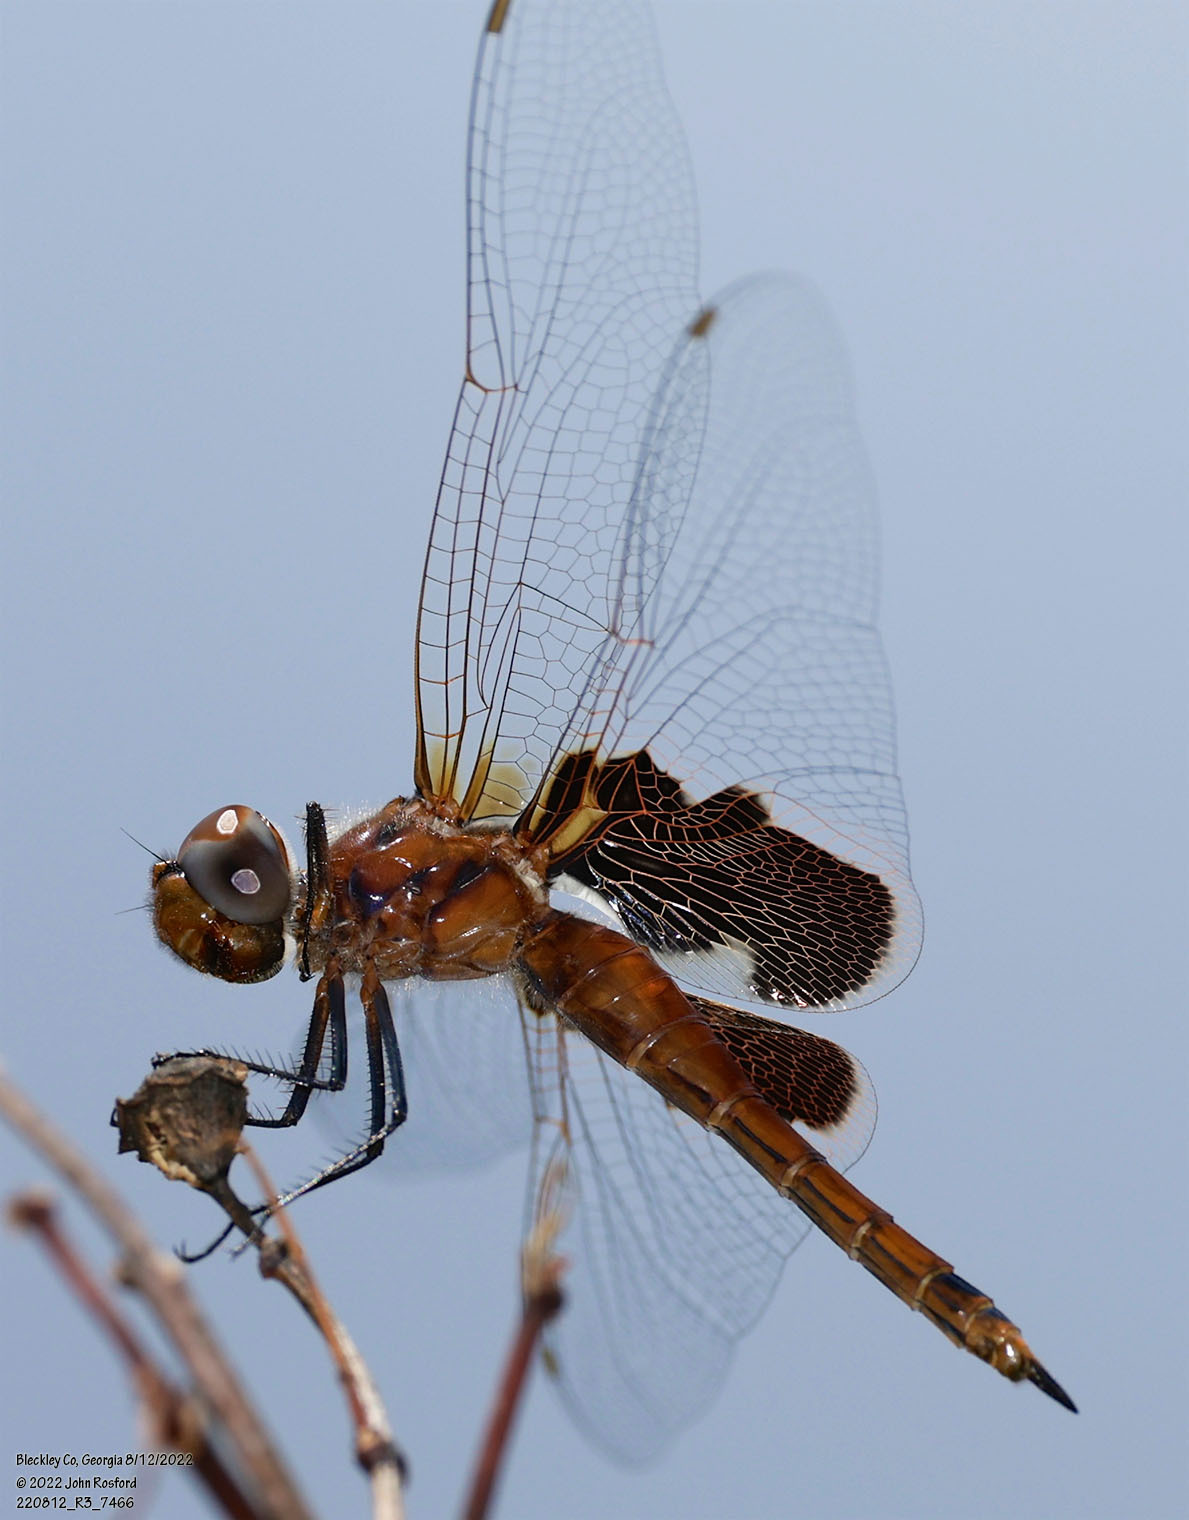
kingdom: Animalia
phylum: Arthropoda
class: Insecta
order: Odonata
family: Libellulidae
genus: Tramea
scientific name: Tramea carolina
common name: Carolina saddlebags
